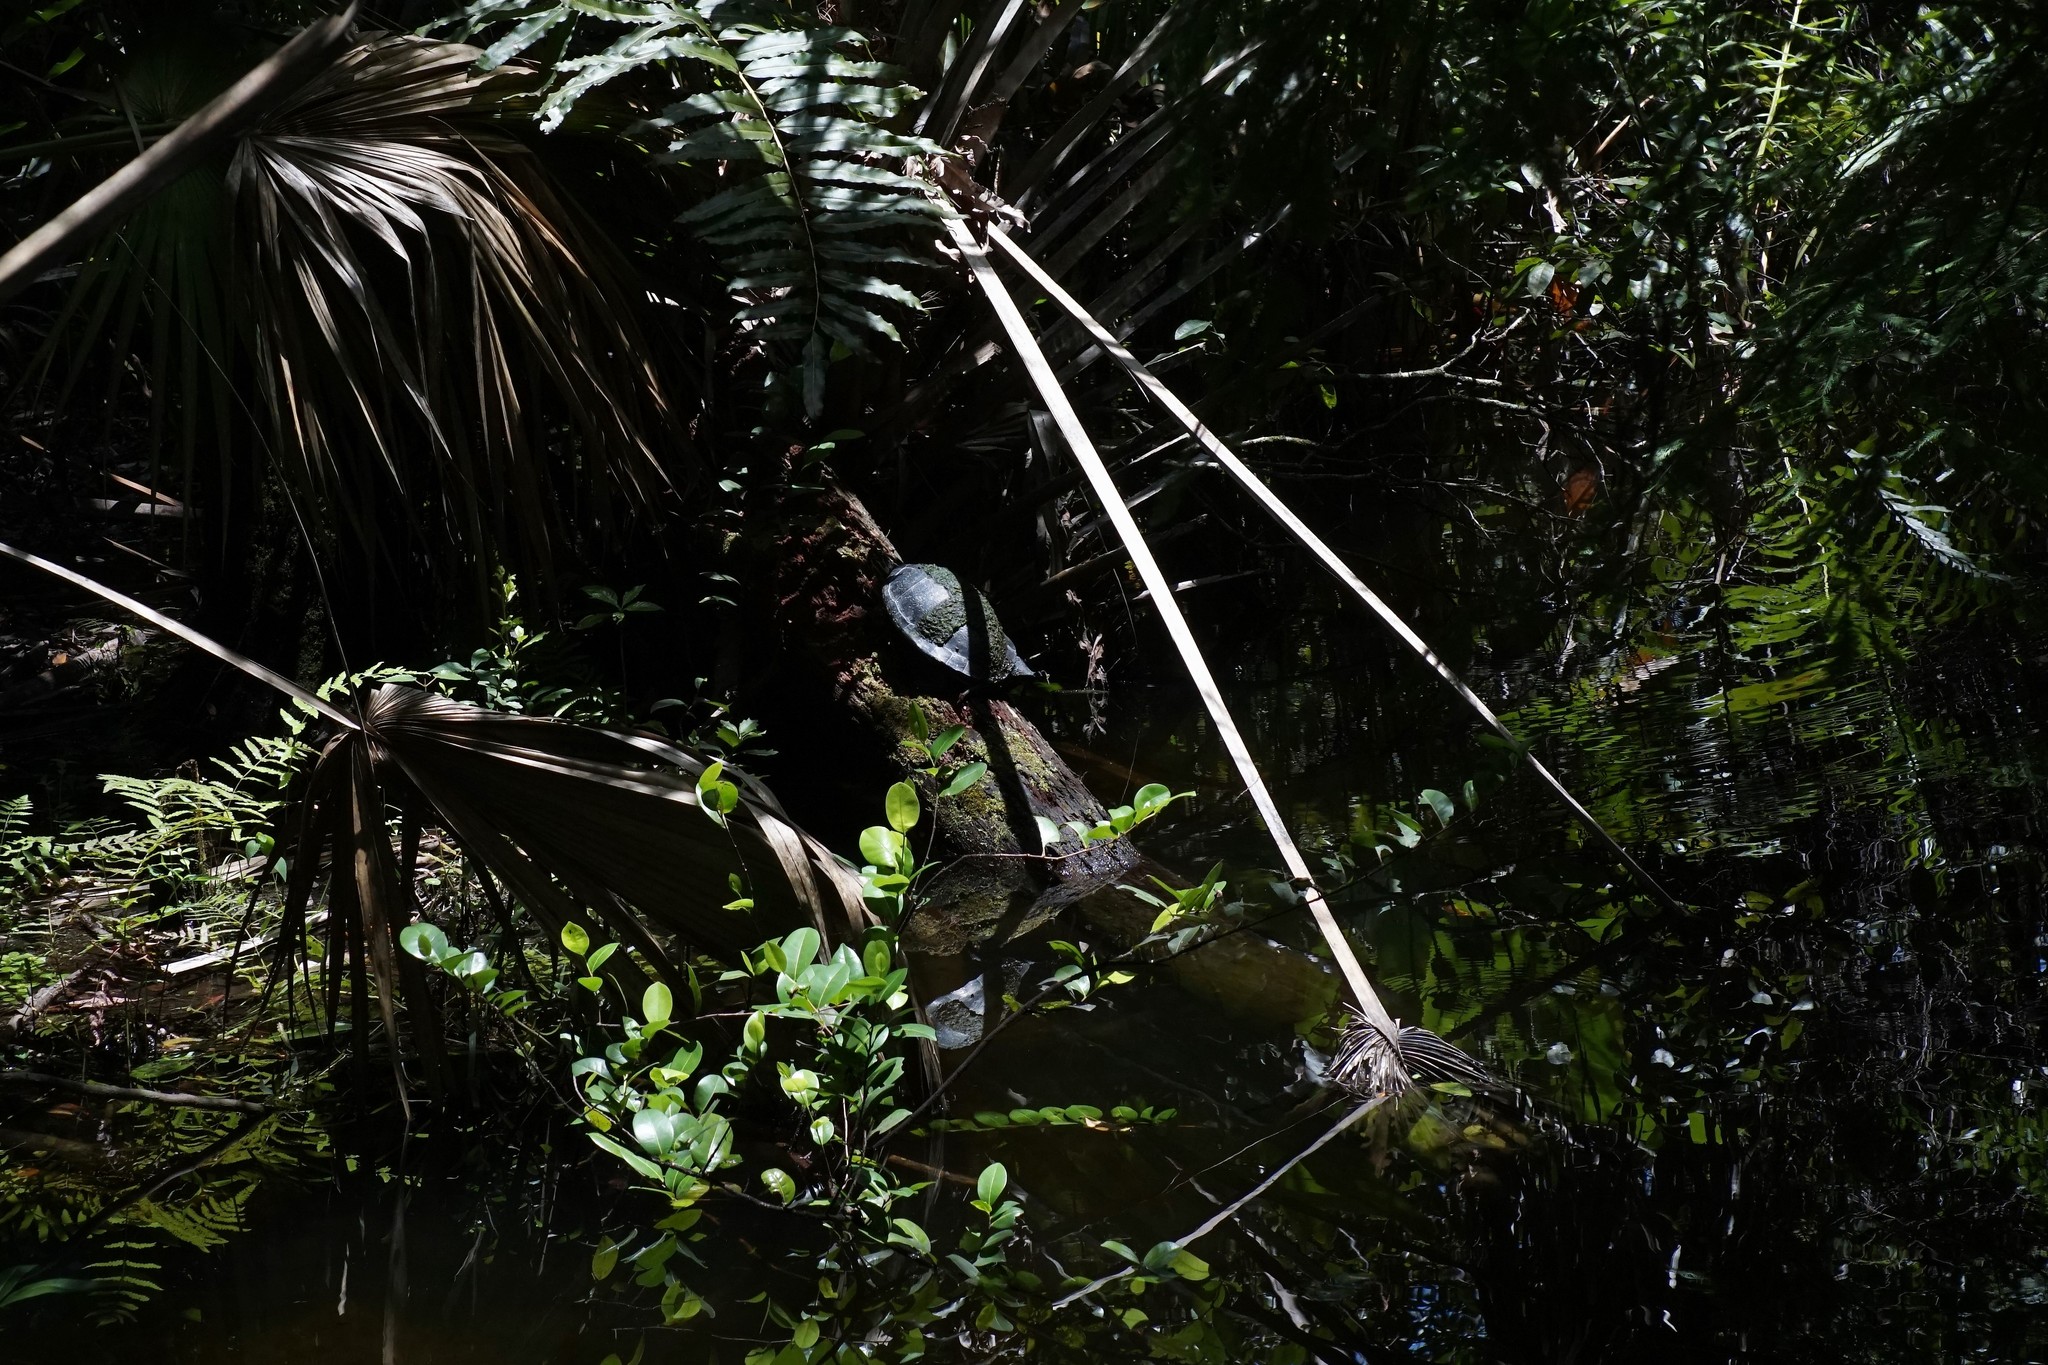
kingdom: Animalia
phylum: Chordata
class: Testudines
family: Emydidae
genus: Pseudemys
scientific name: Pseudemys nelsoni
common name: Florida red-bellied turtle
